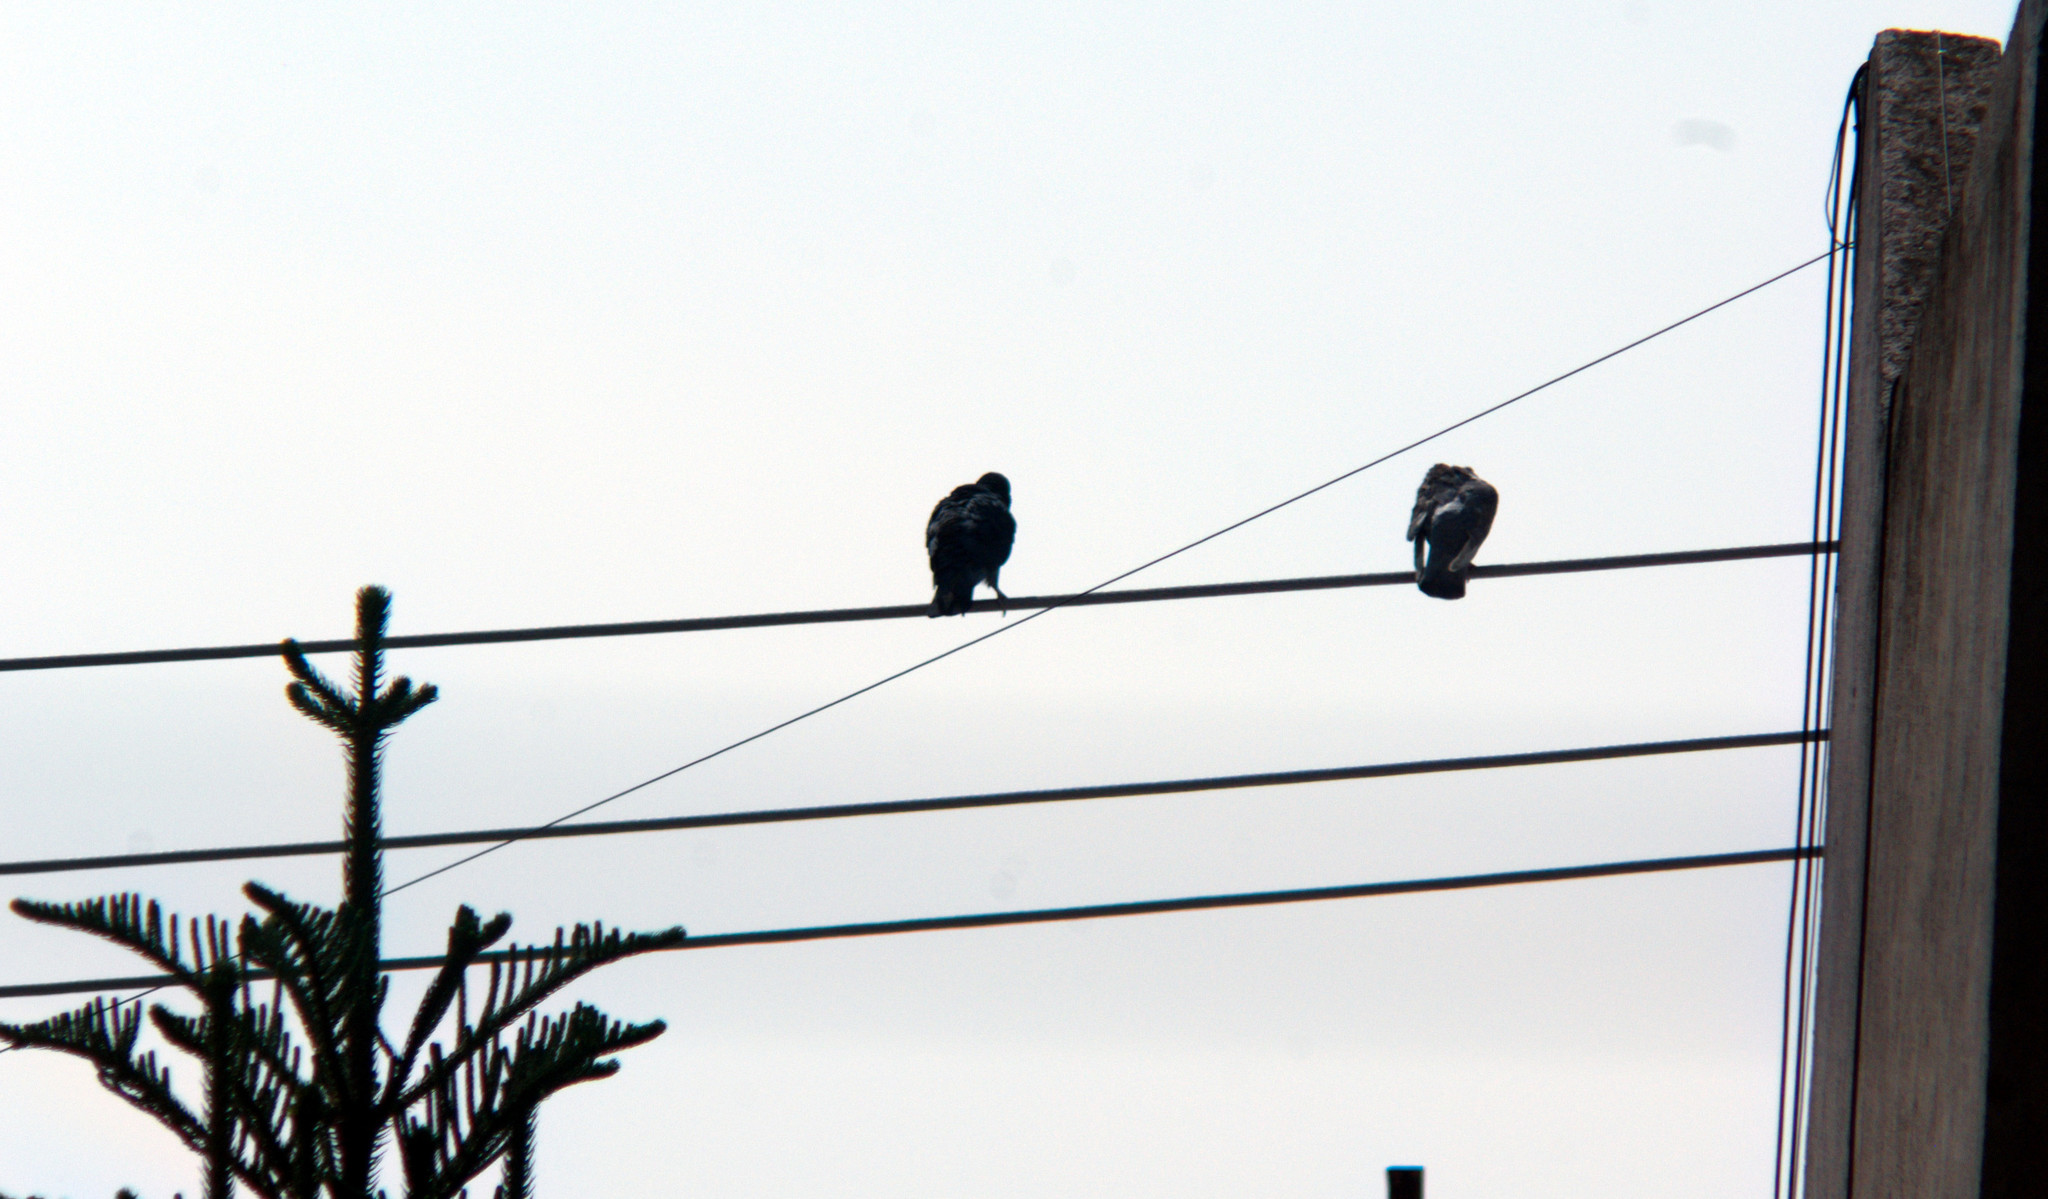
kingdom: Animalia
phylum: Chordata
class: Aves
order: Columbiformes
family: Columbidae
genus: Columba
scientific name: Columba livia
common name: Rock pigeon
